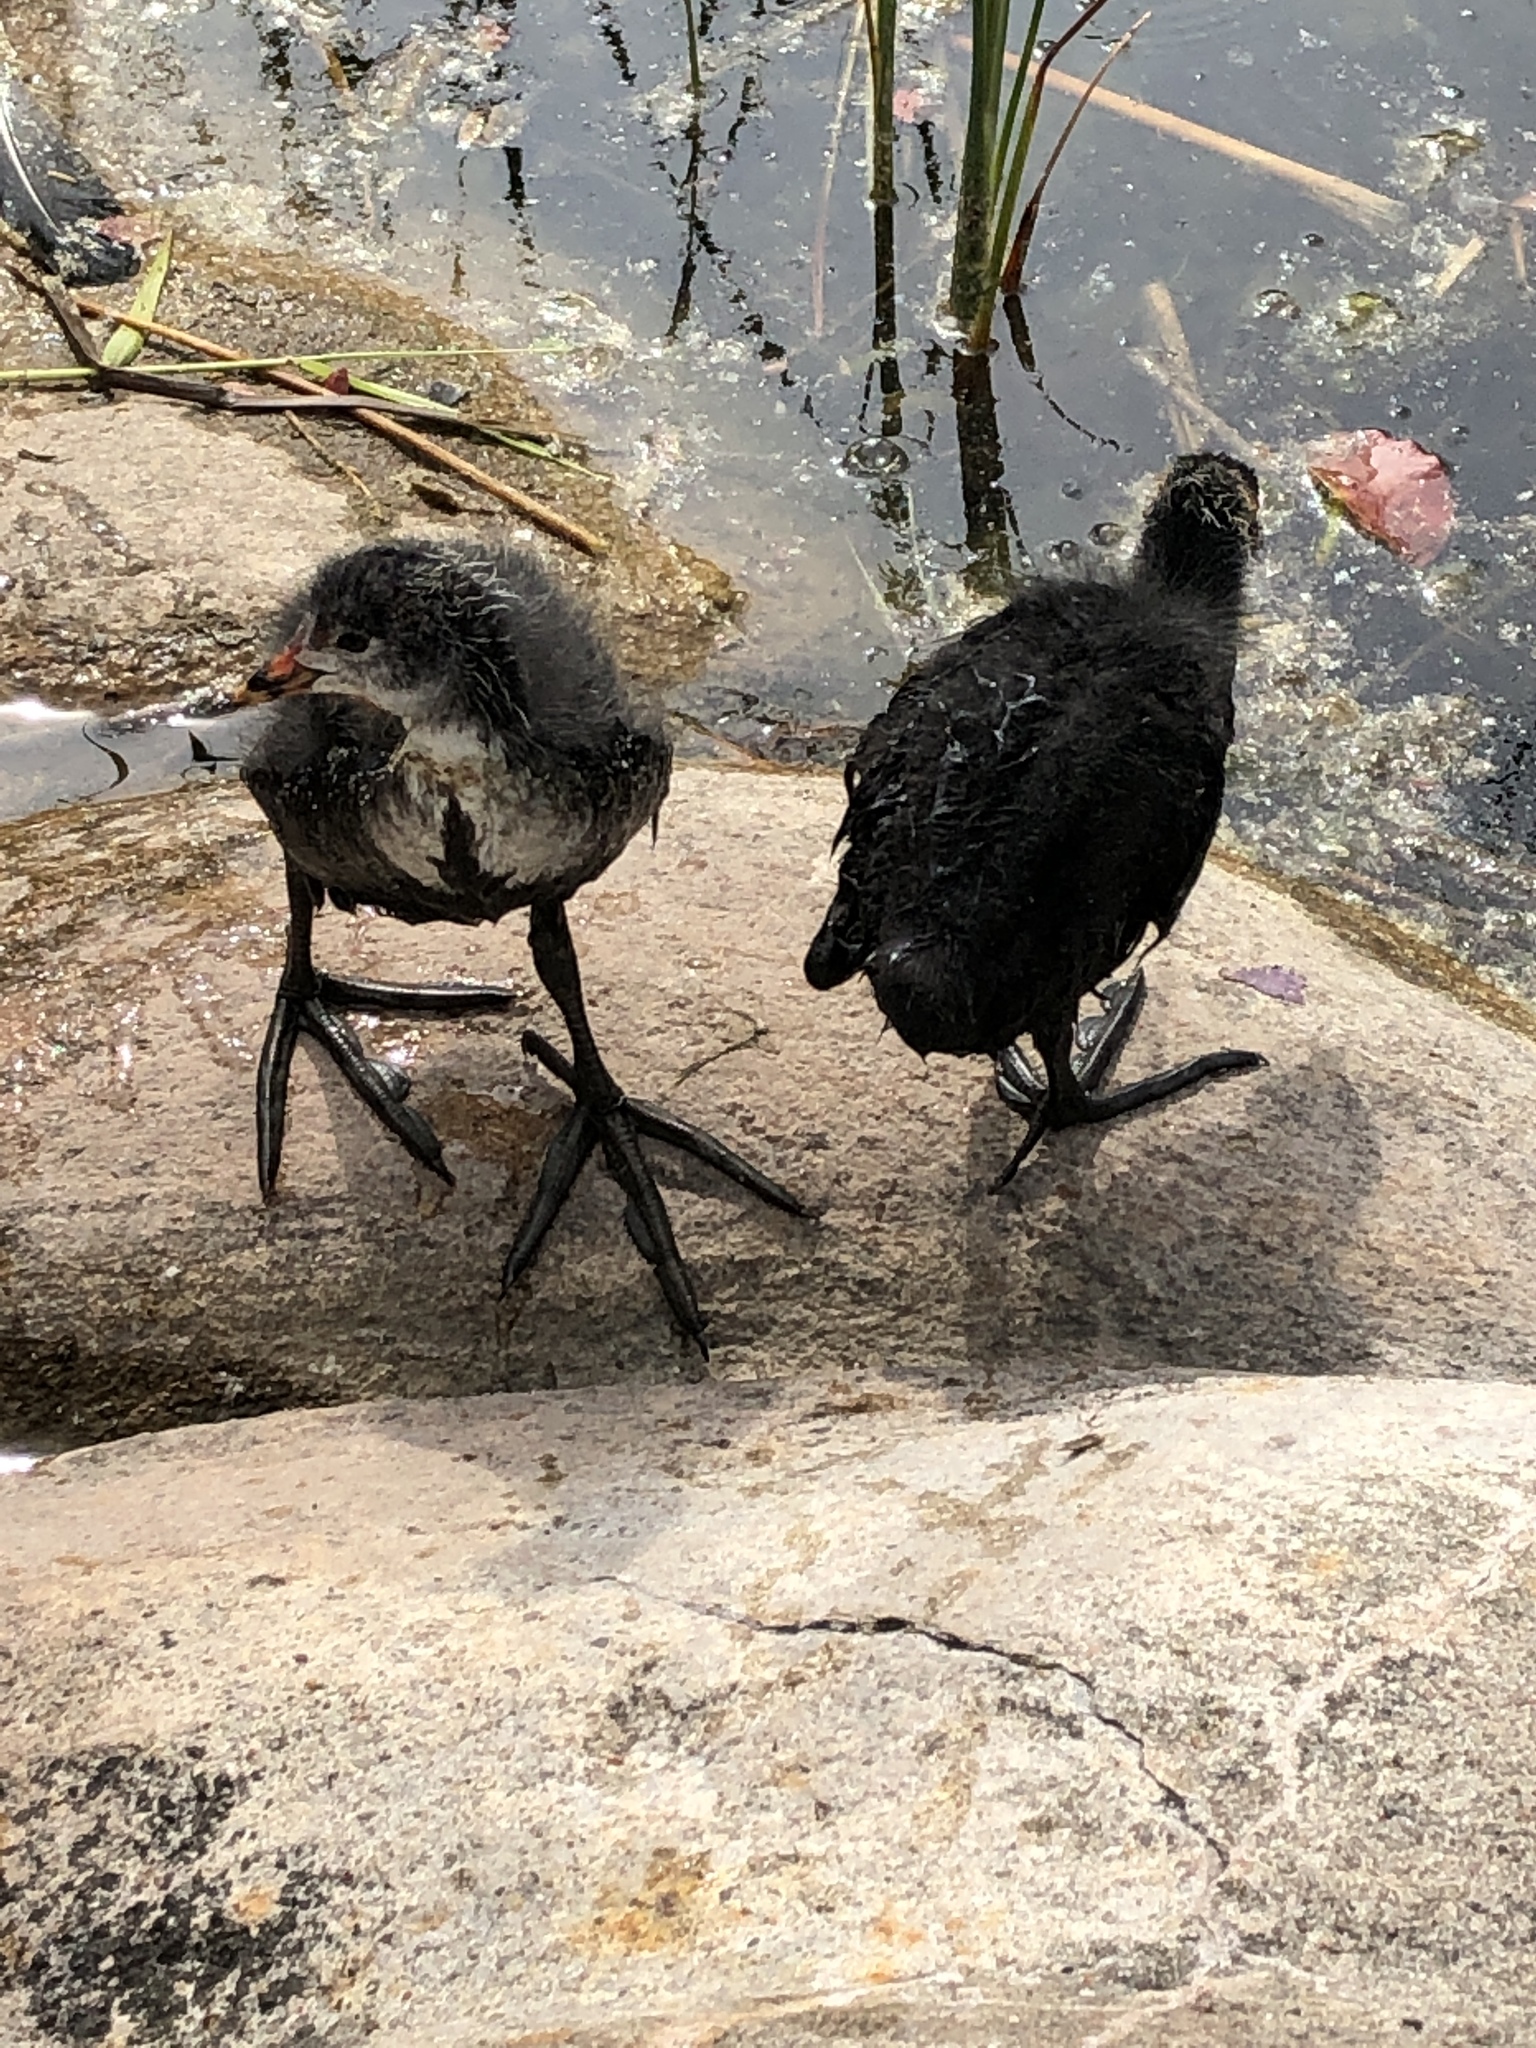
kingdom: Animalia
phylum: Chordata
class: Aves
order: Gruiformes
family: Rallidae
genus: Fulica
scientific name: Fulica atra
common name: Eurasian coot
